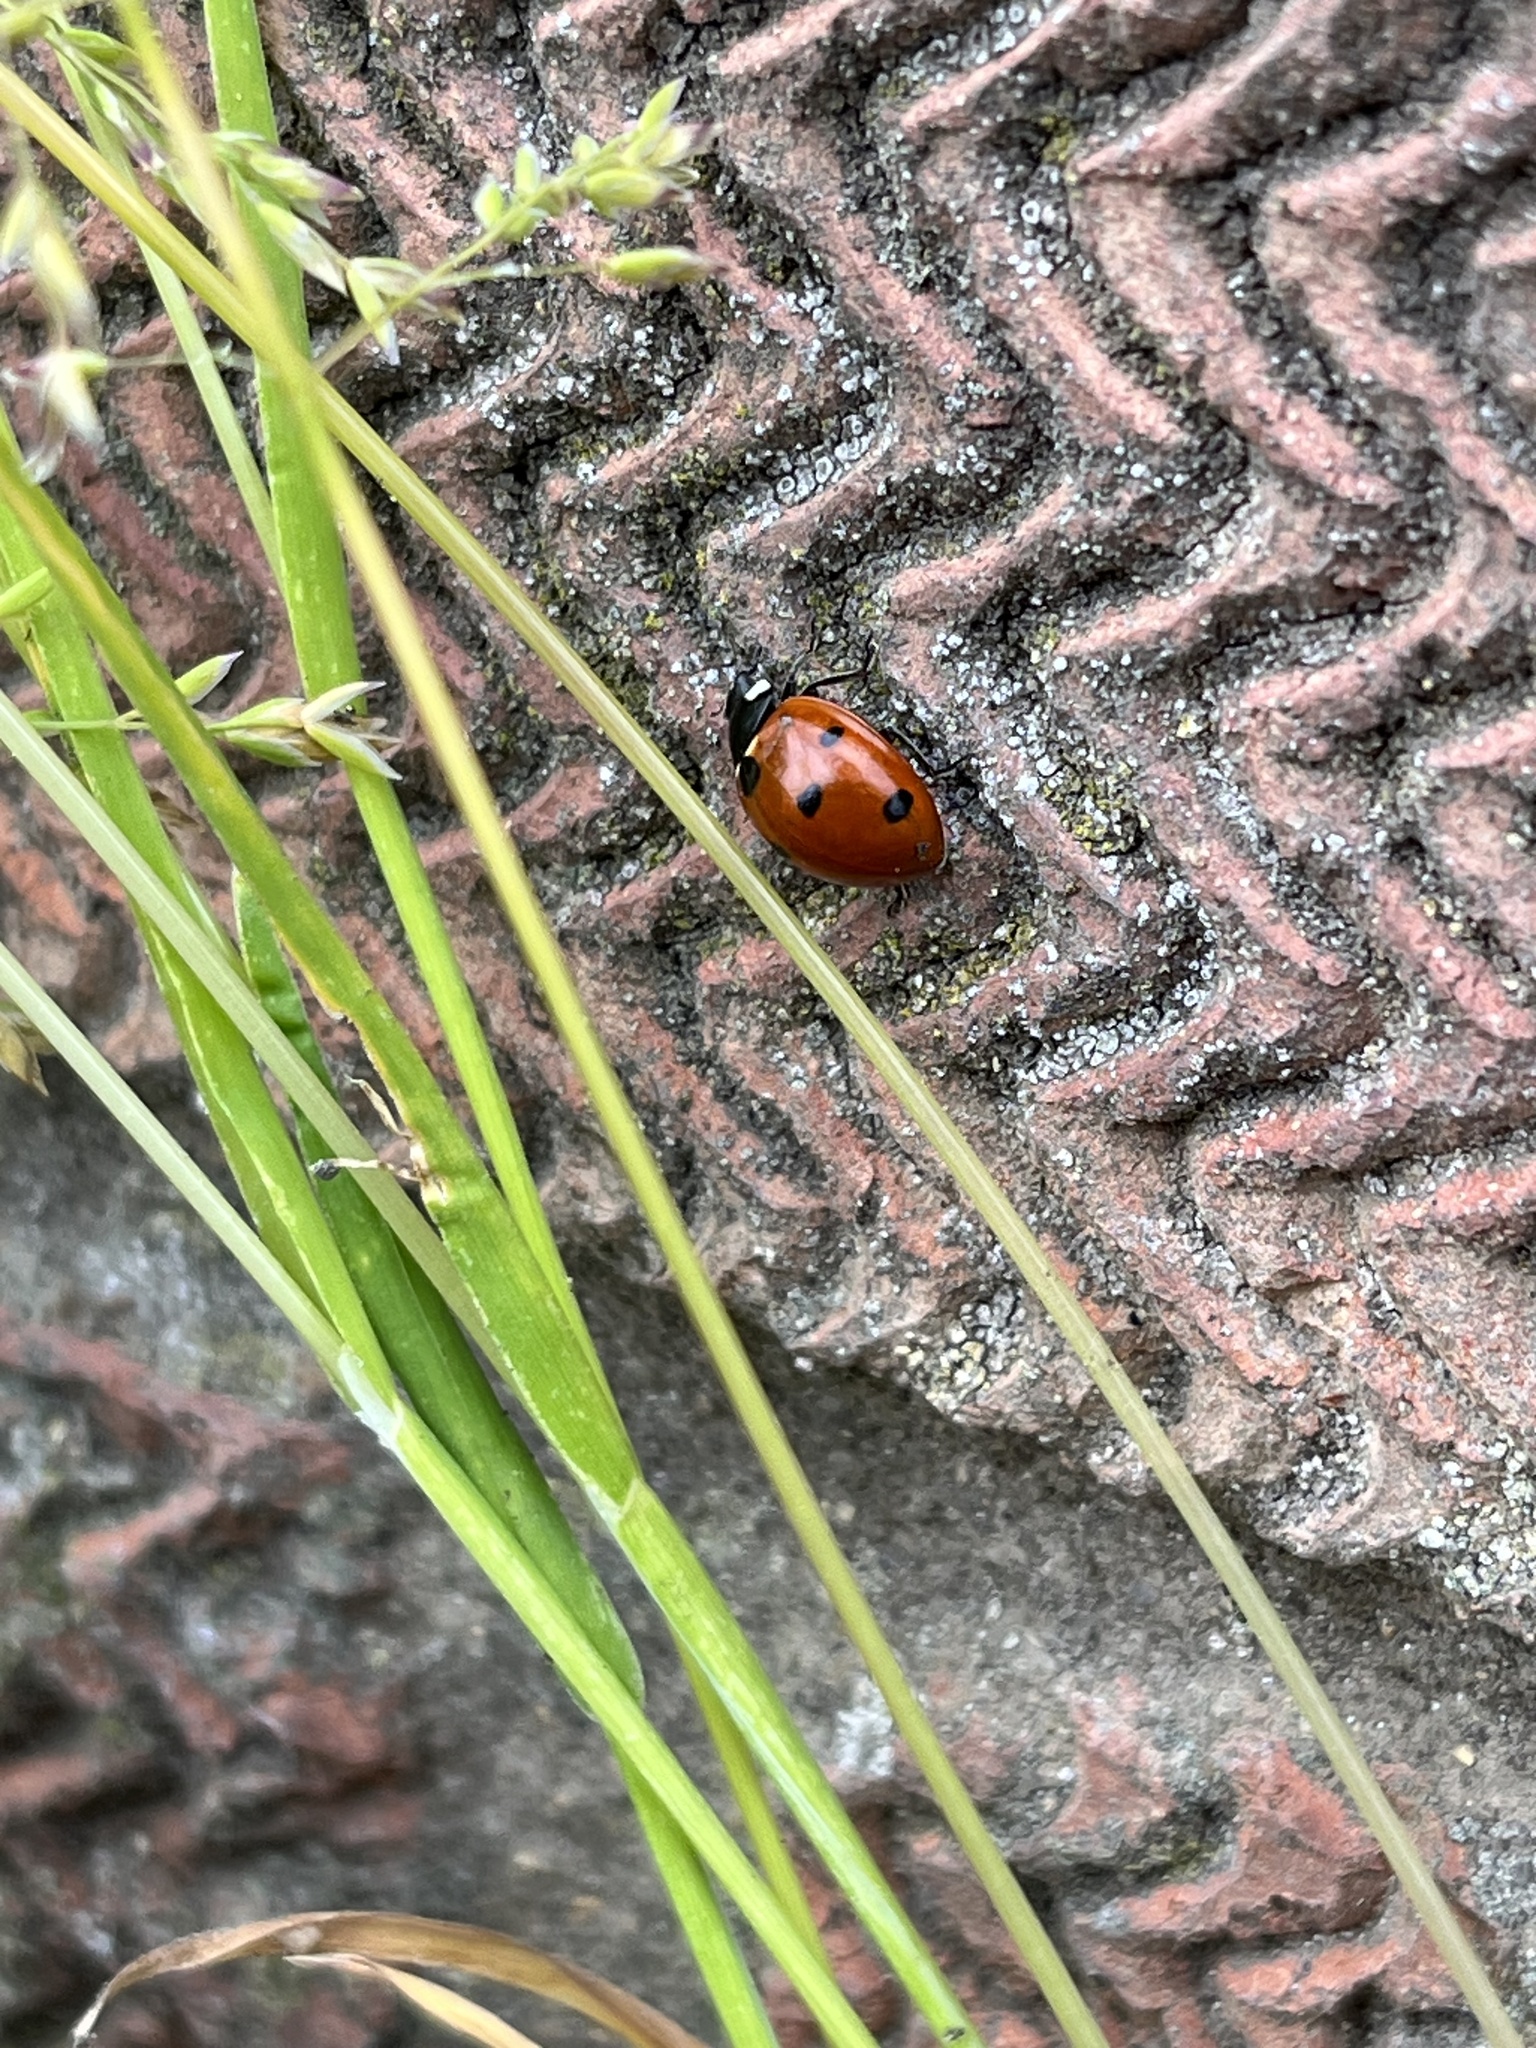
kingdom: Animalia
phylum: Arthropoda
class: Insecta
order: Coleoptera
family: Coccinellidae
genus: Coccinella
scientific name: Coccinella septempunctata
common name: Sevenspotted lady beetle
